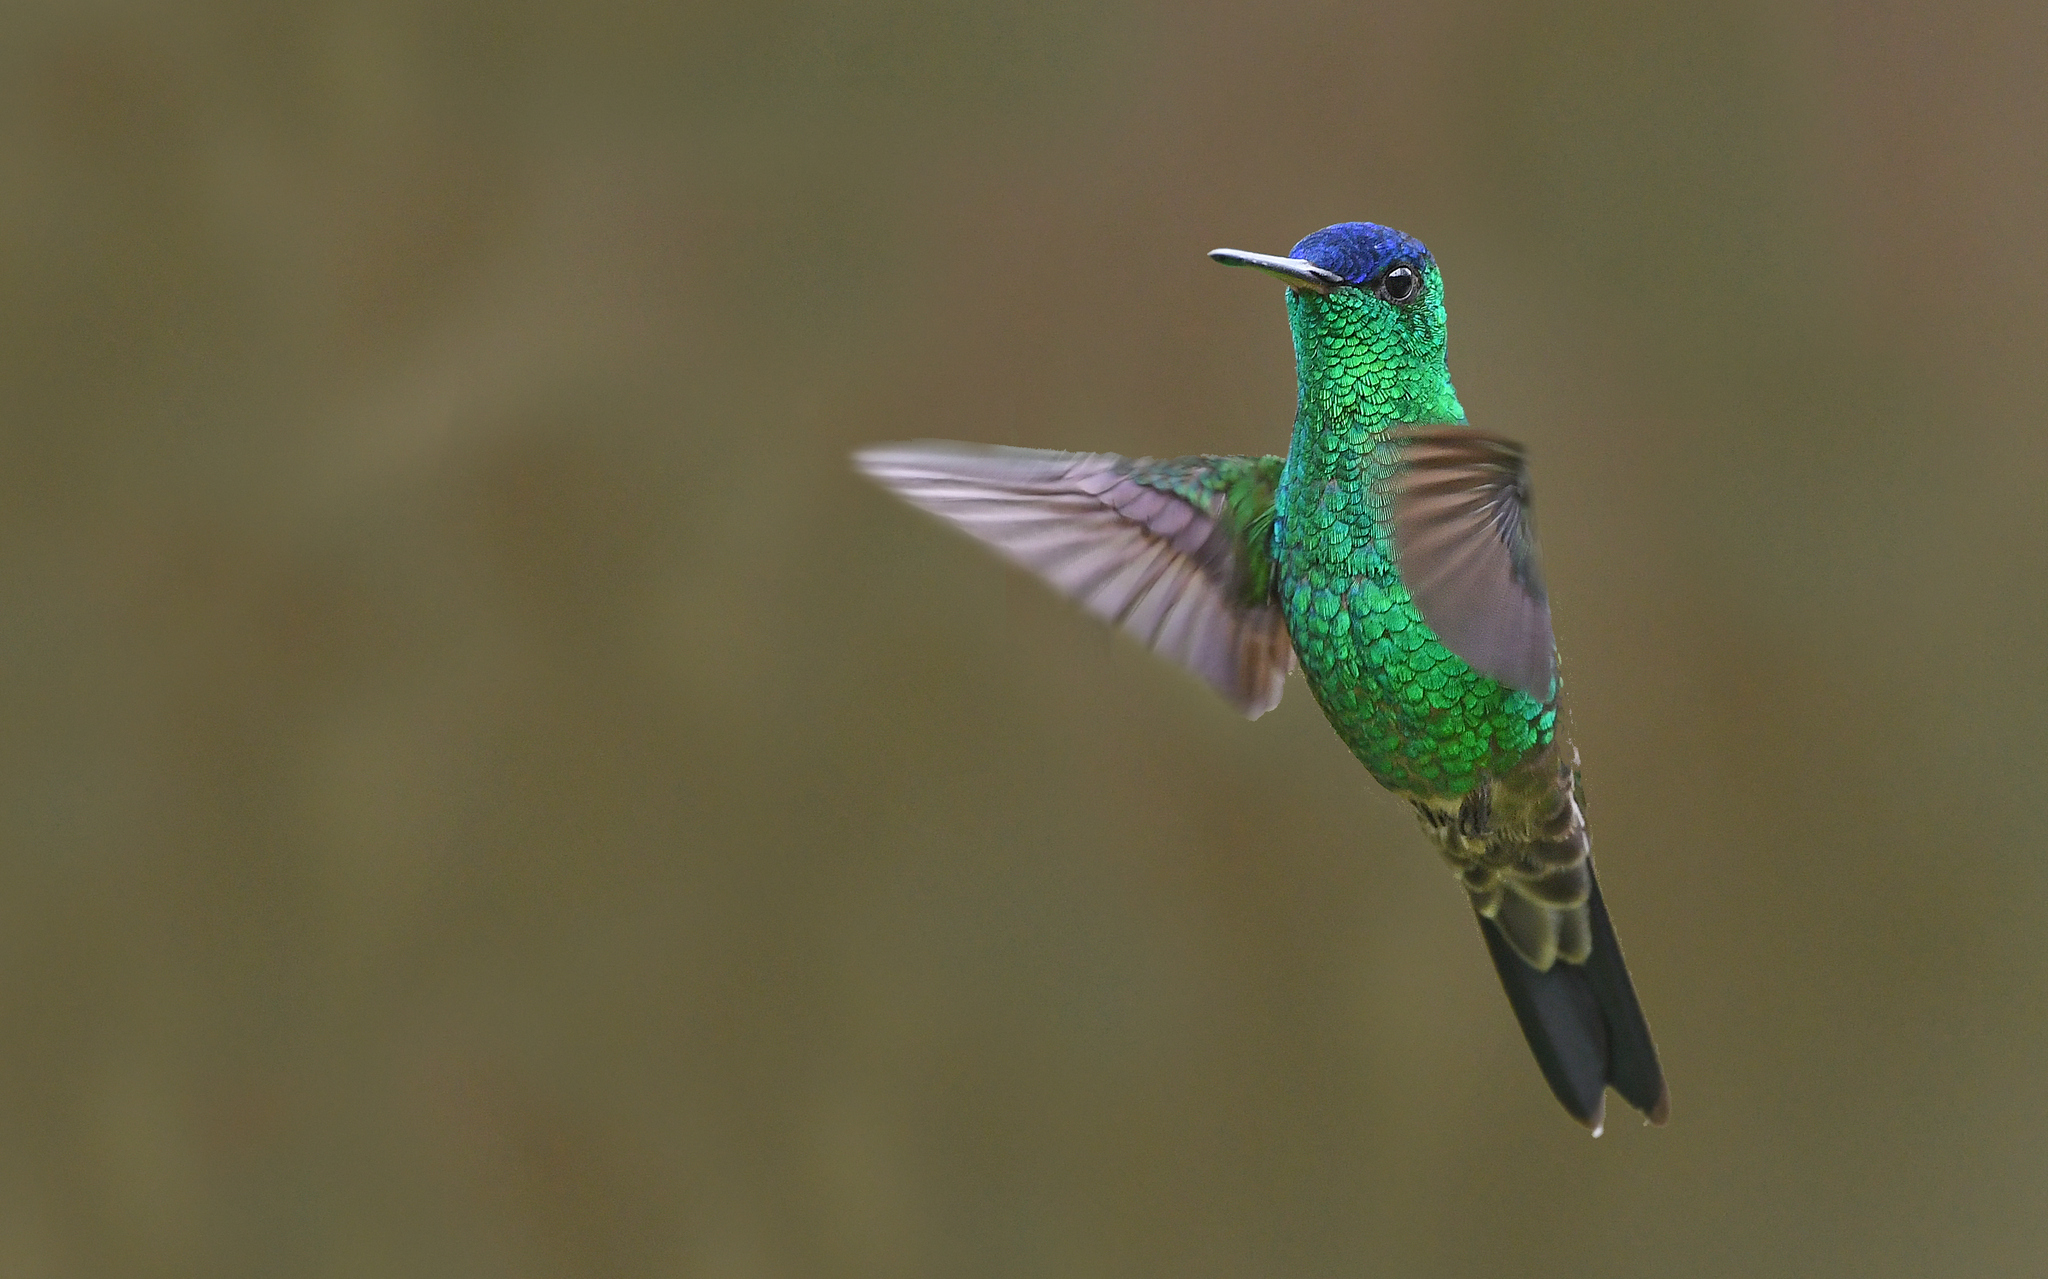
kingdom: Animalia
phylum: Chordata
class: Aves
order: Apodiformes
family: Trochilidae
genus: Saucerottia
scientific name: Saucerottia cyanifrons
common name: Indigo-capped hummingbird
